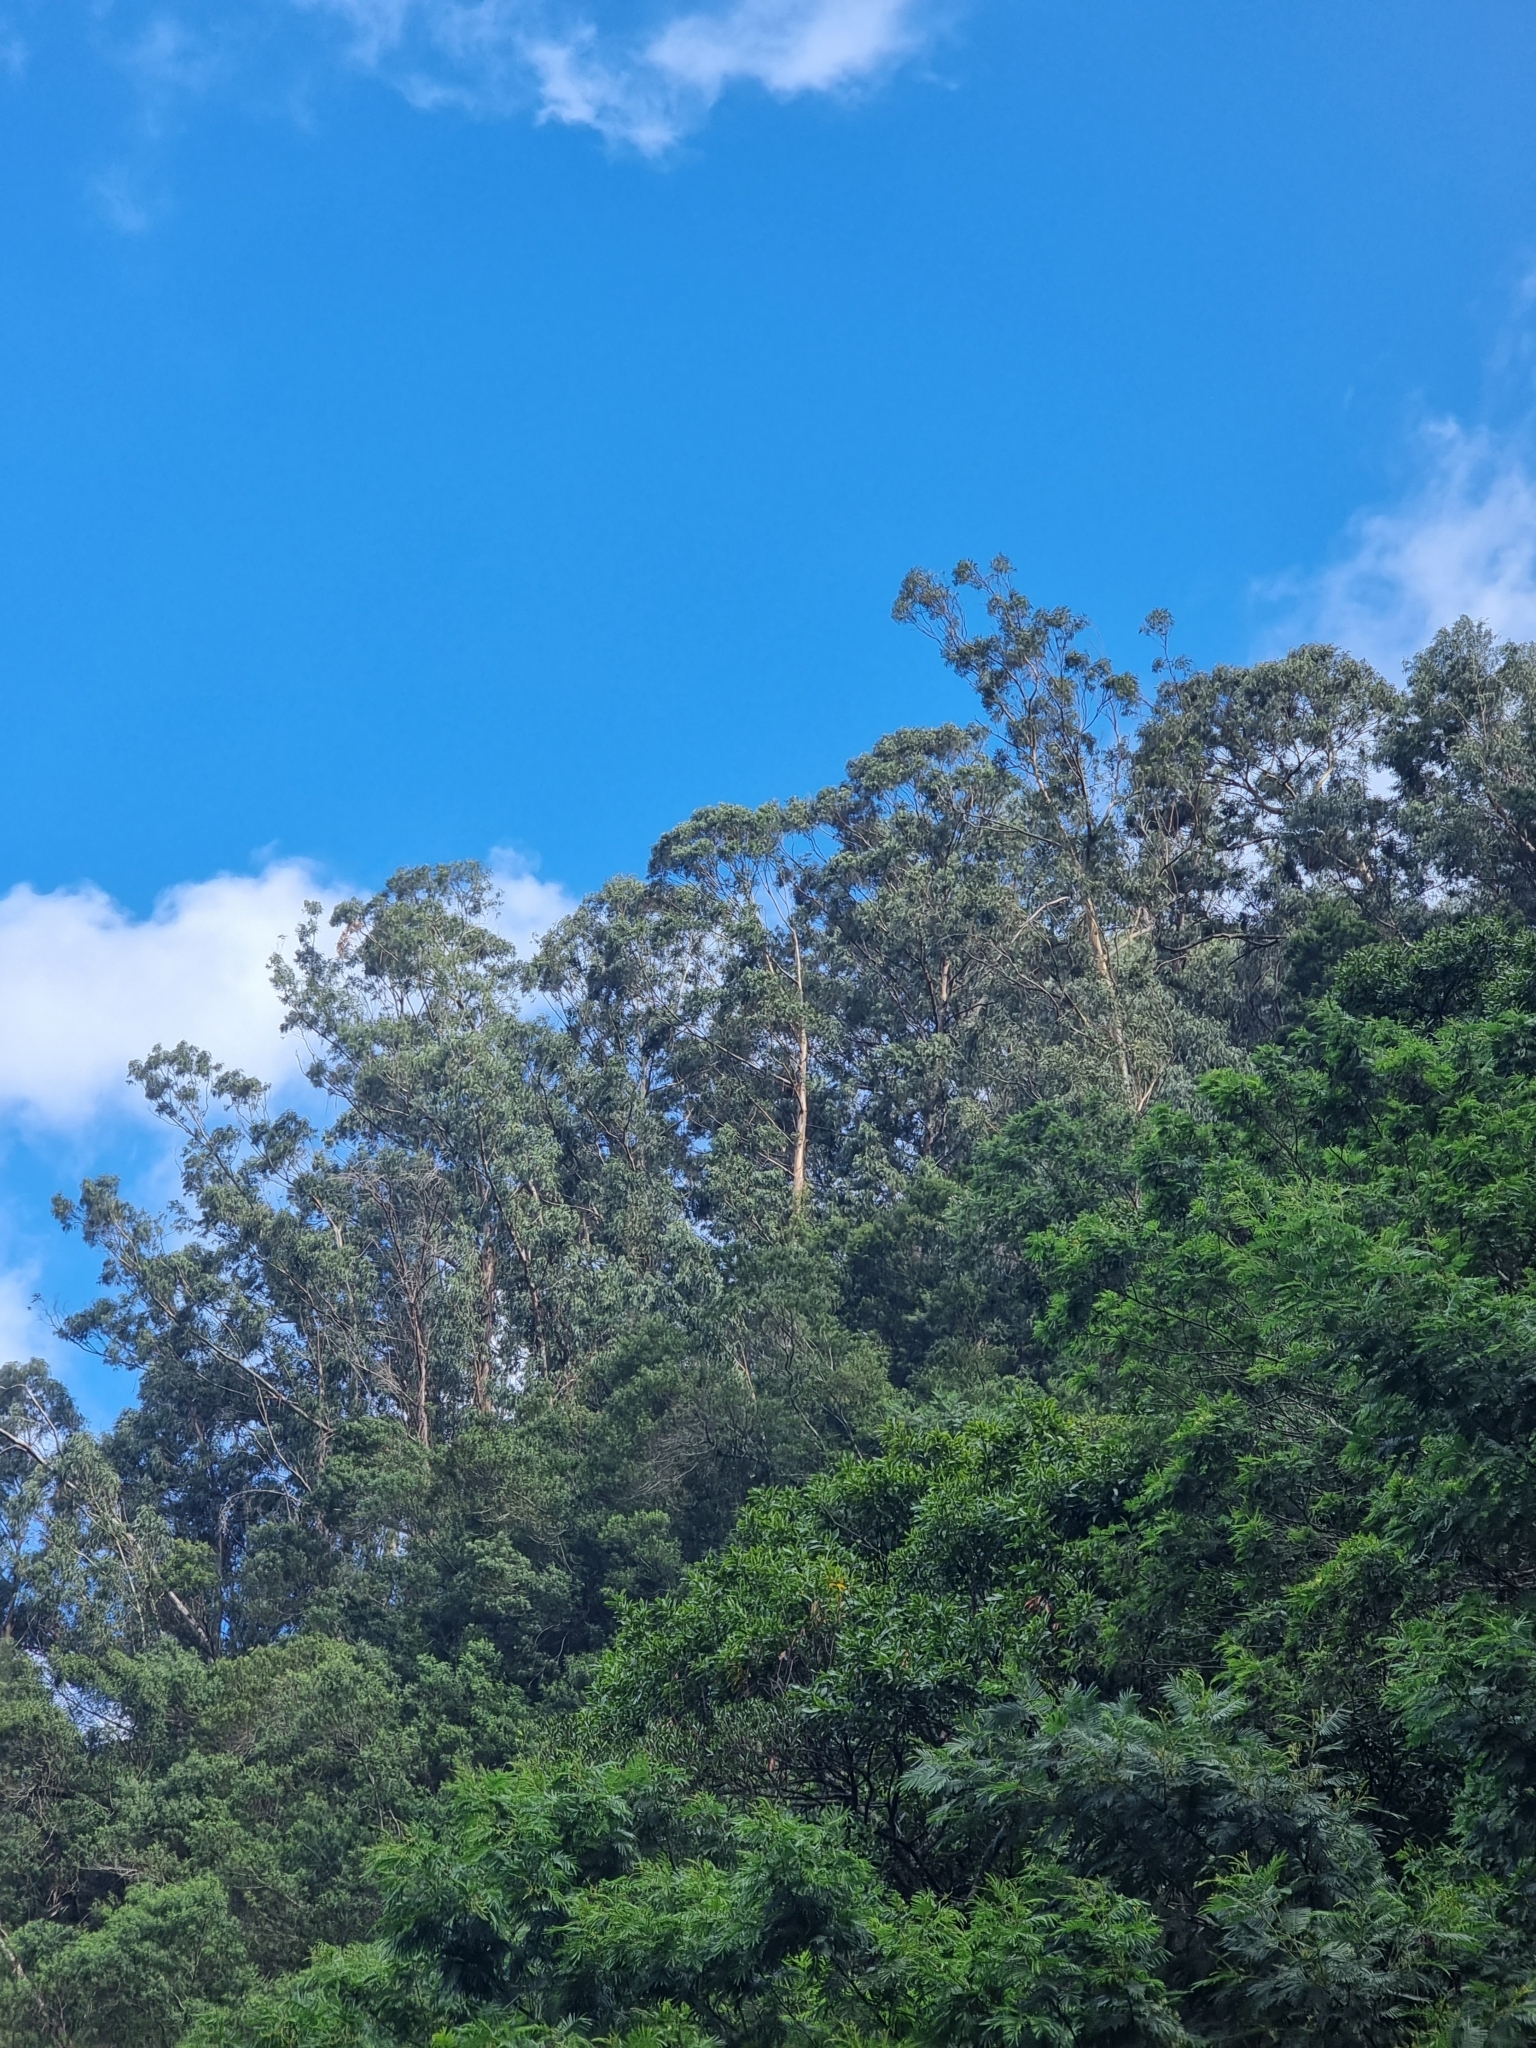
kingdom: Plantae
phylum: Tracheophyta
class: Magnoliopsida
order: Myrtales
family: Myrtaceae
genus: Eucalyptus
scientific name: Eucalyptus globulus
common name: Southern blue-gum
